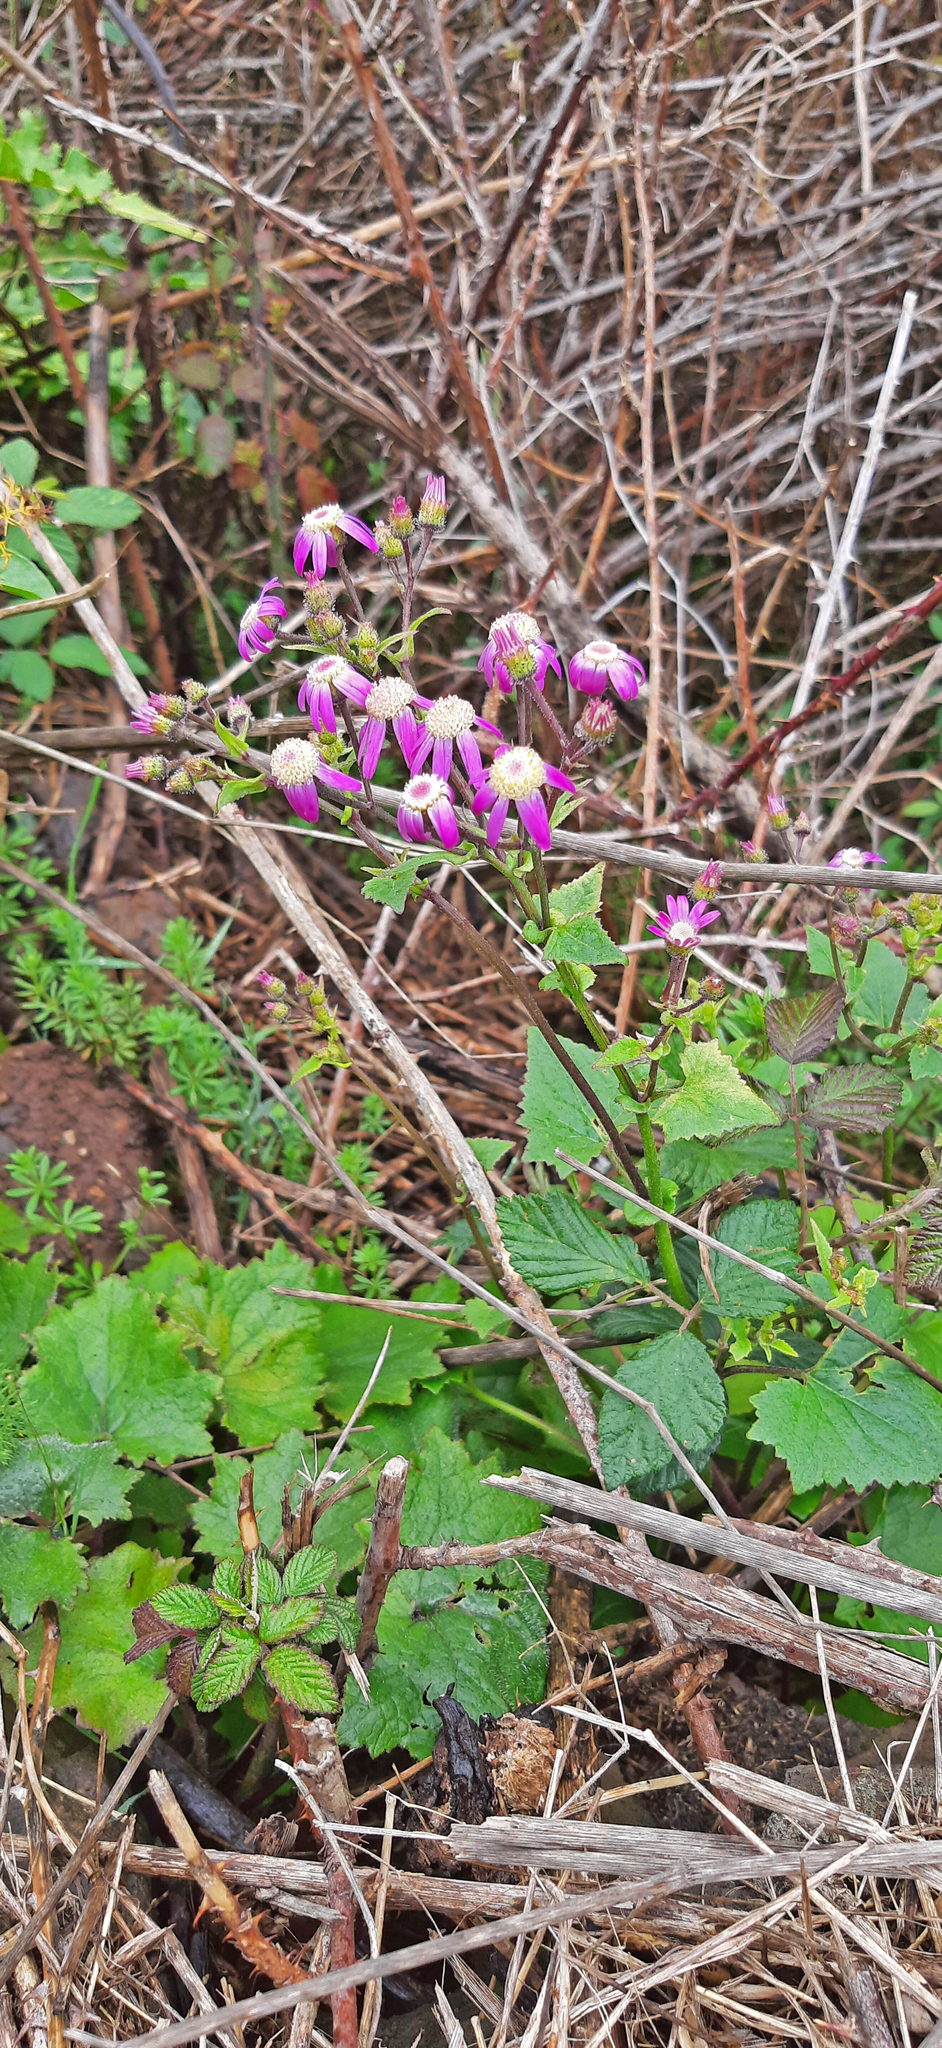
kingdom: Plantae
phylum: Tracheophyta
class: Magnoliopsida
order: Asterales
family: Asteraceae
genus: Pericallis
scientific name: Pericallis echinata
